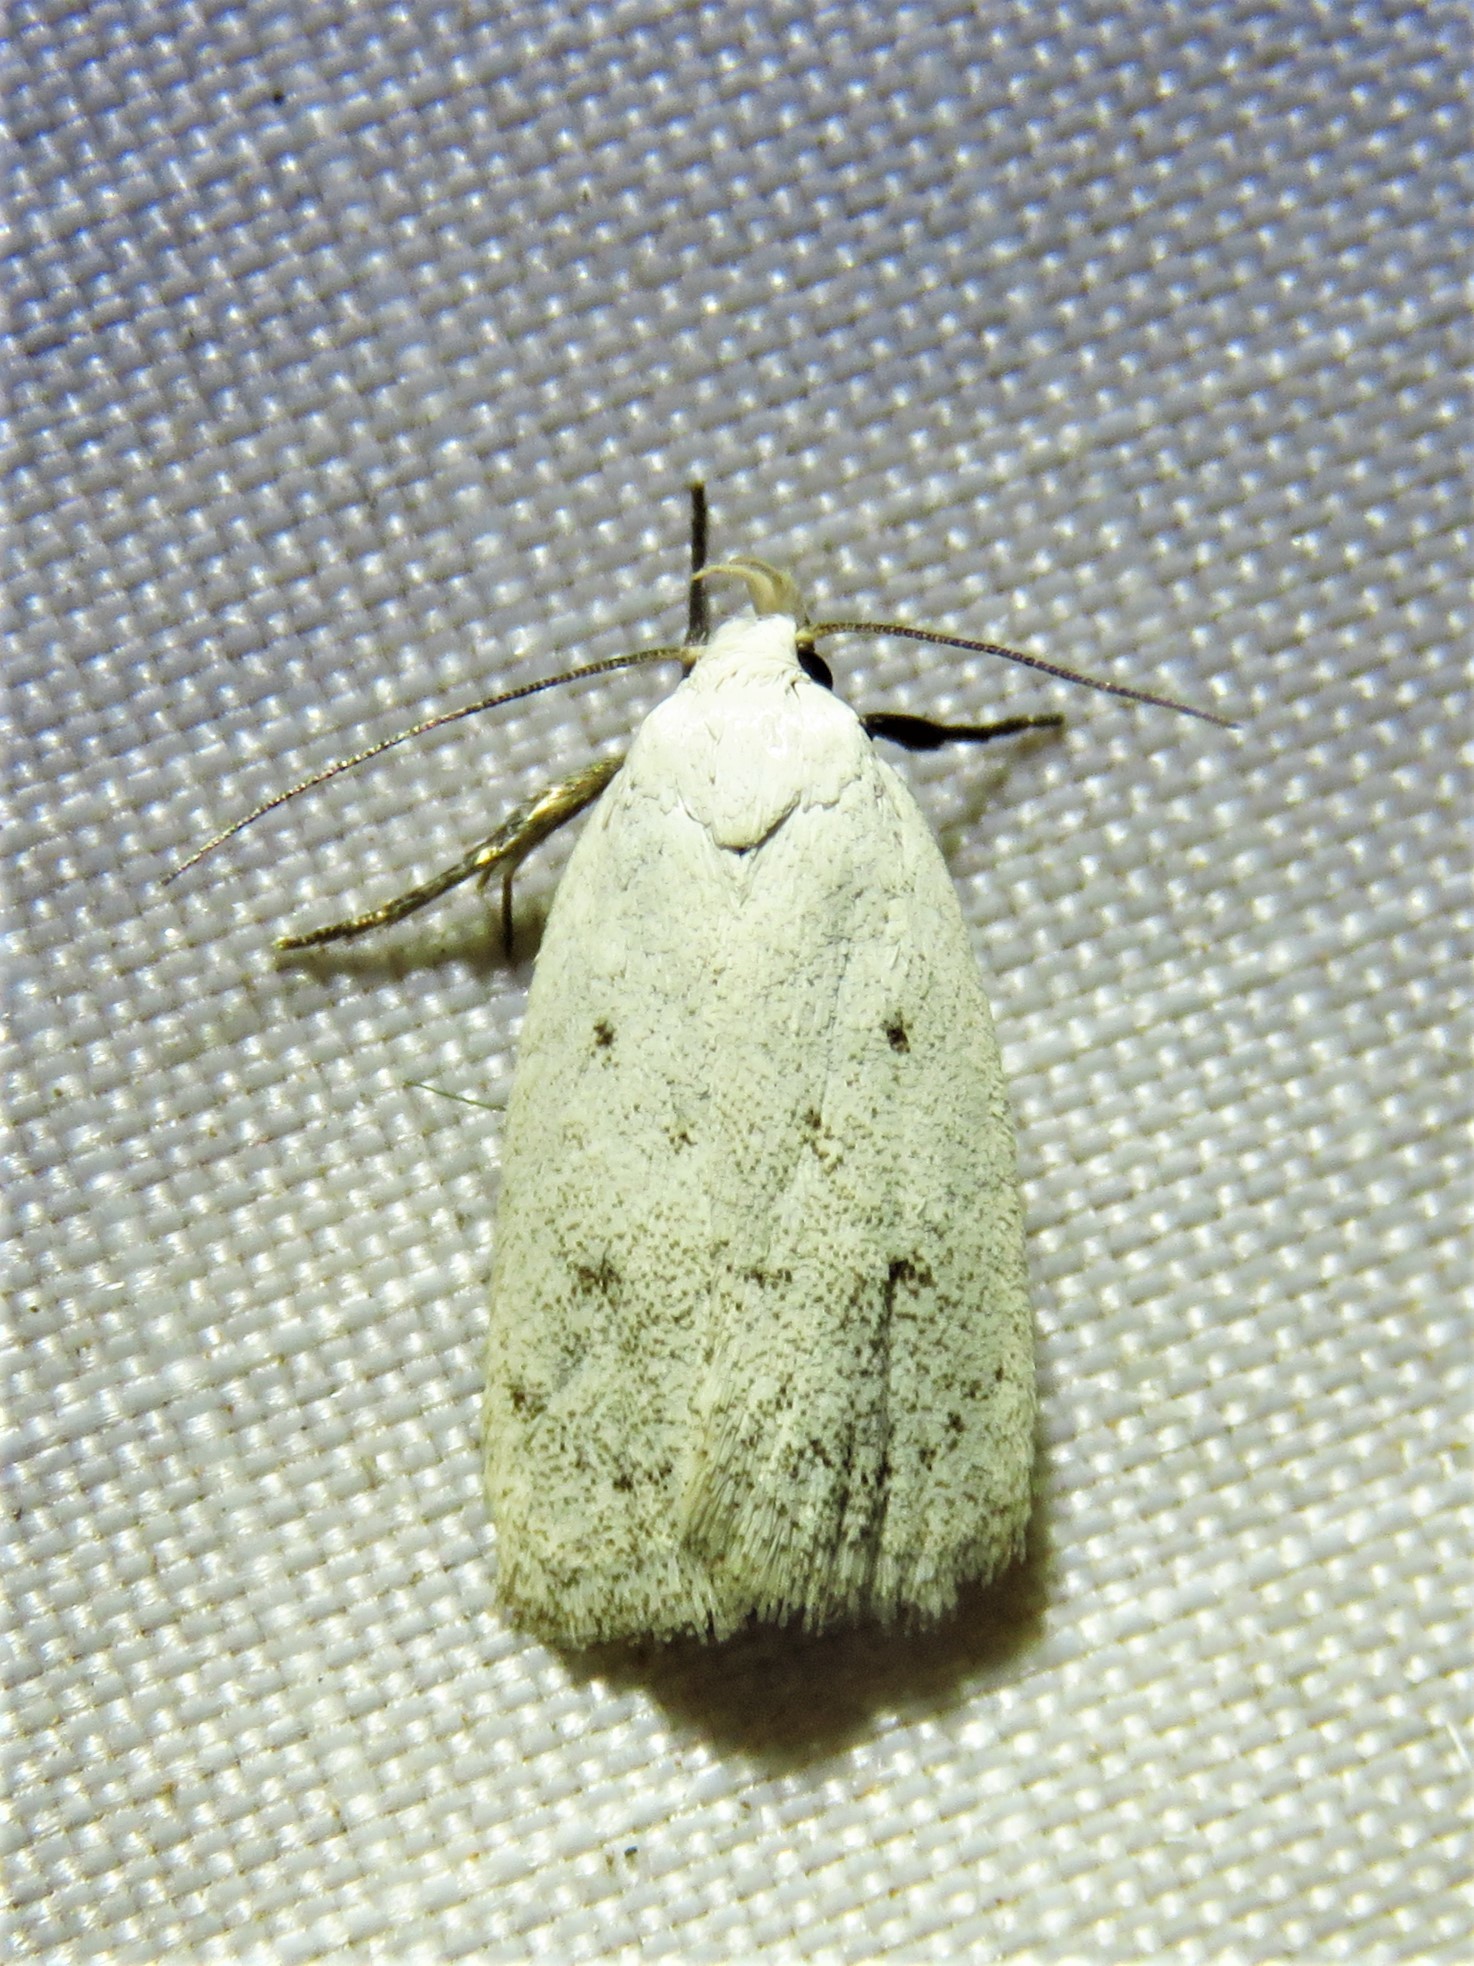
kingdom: Animalia
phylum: Arthropoda
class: Insecta
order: Lepidoptera
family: Oecophoridae
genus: Inga
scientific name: Inga cretacea
